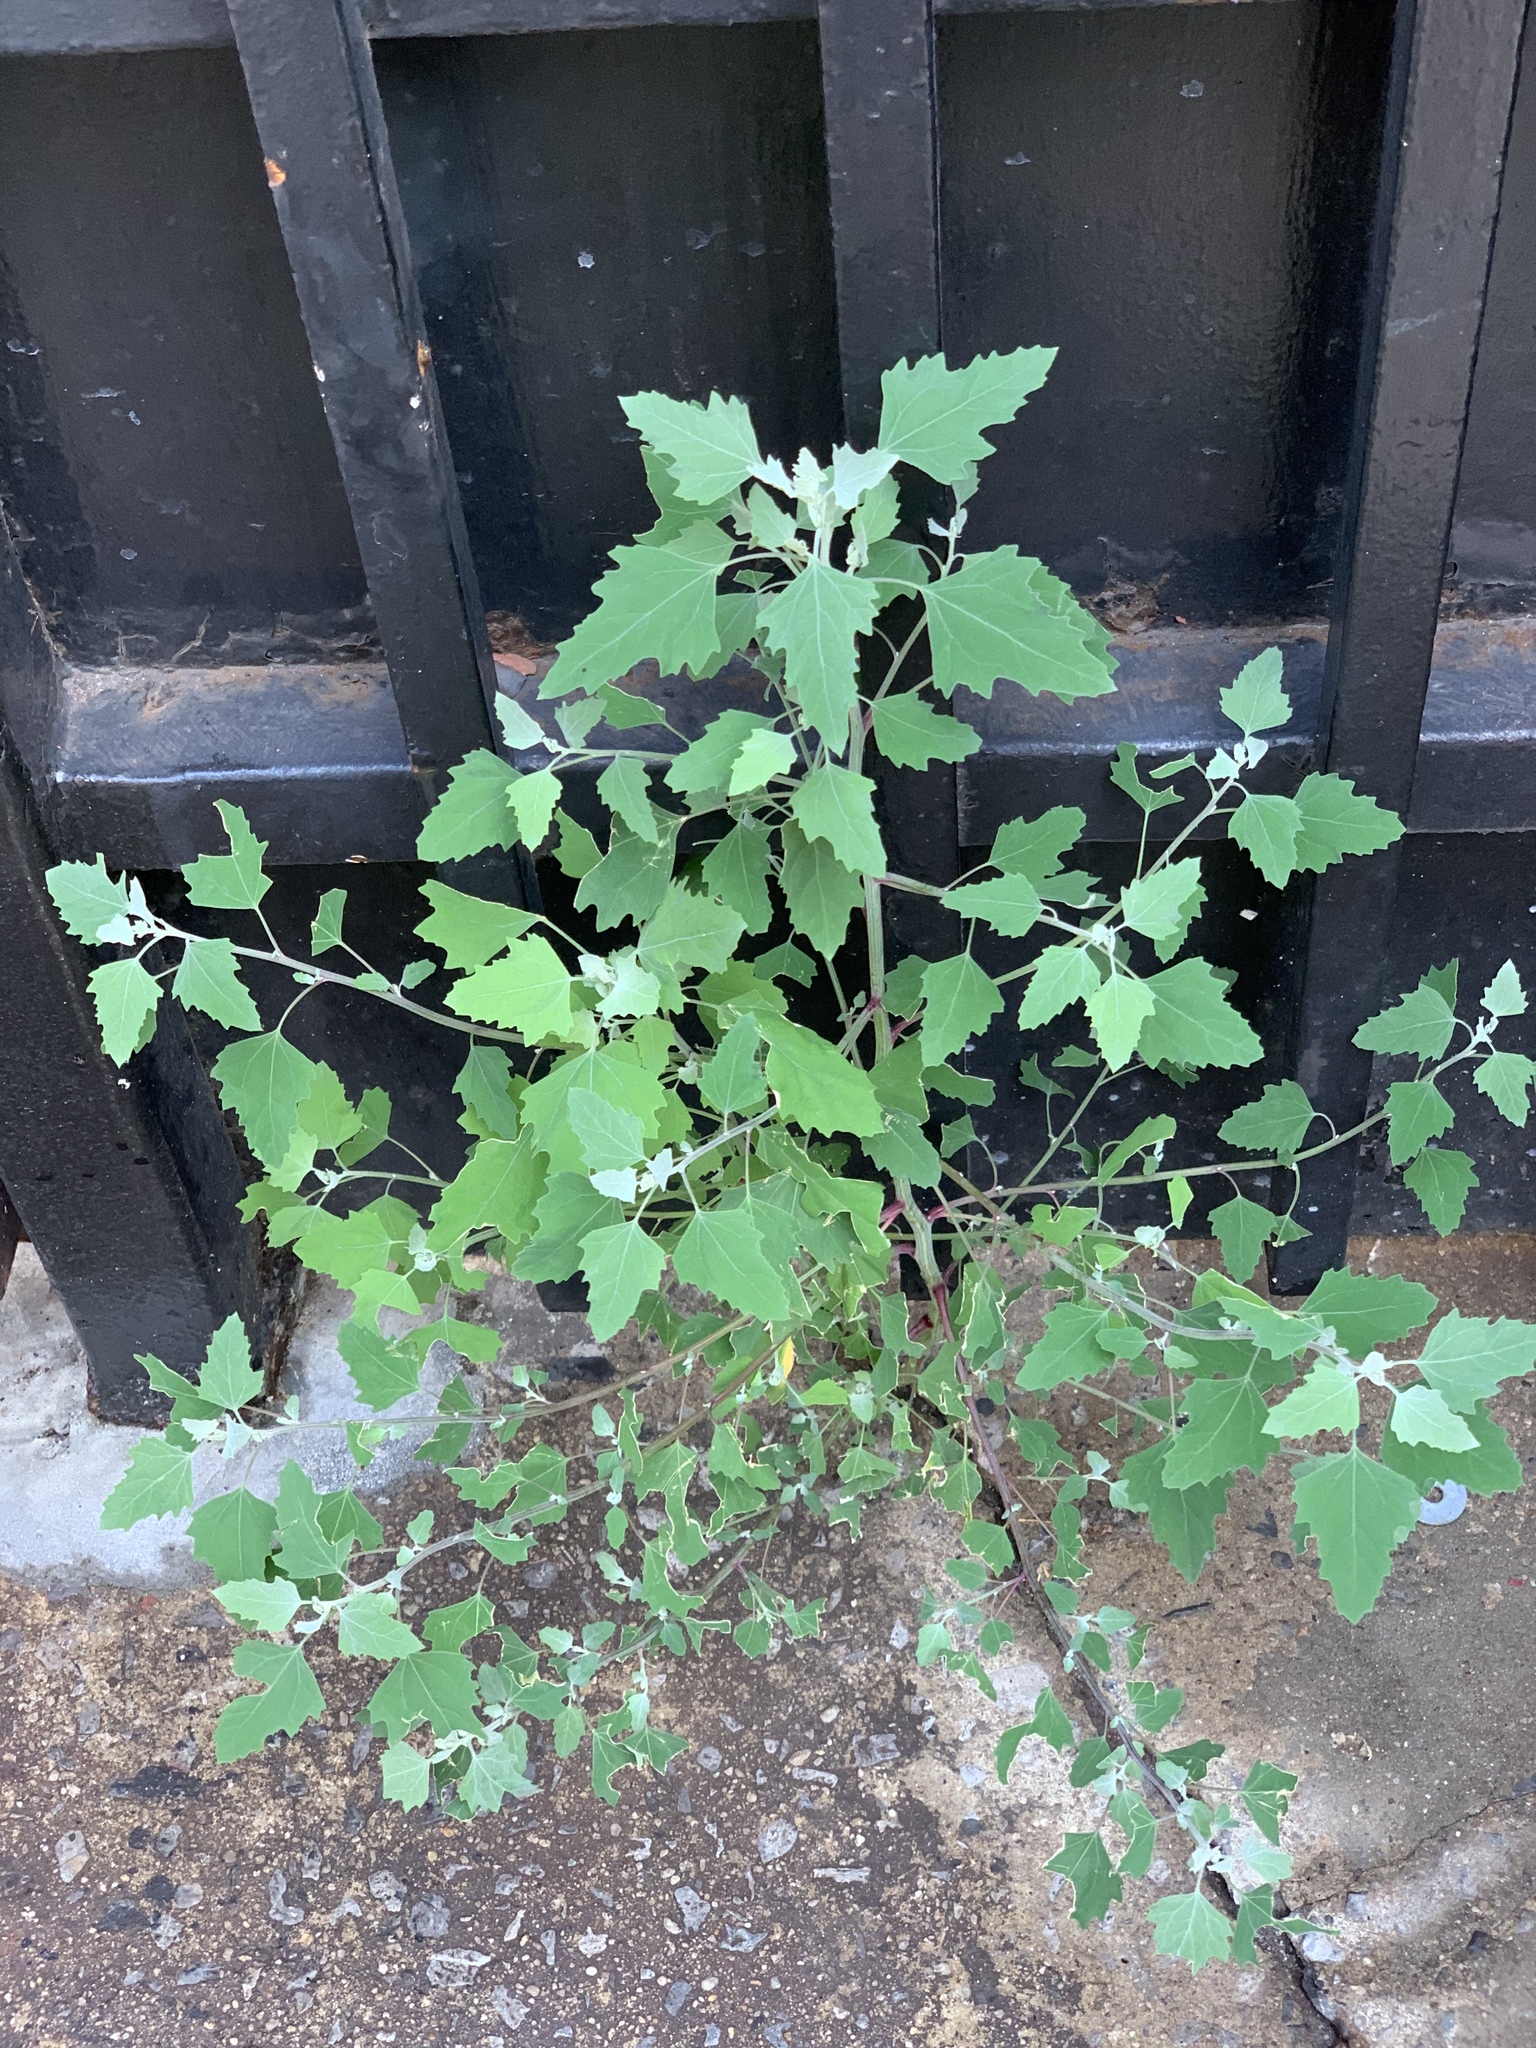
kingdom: Plantae
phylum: Tracheophyta
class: Magnoliopsida
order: Caryophyllales
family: Amaranthaceae
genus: Chenopodium
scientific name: Chenopodium album
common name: Fat-hen
